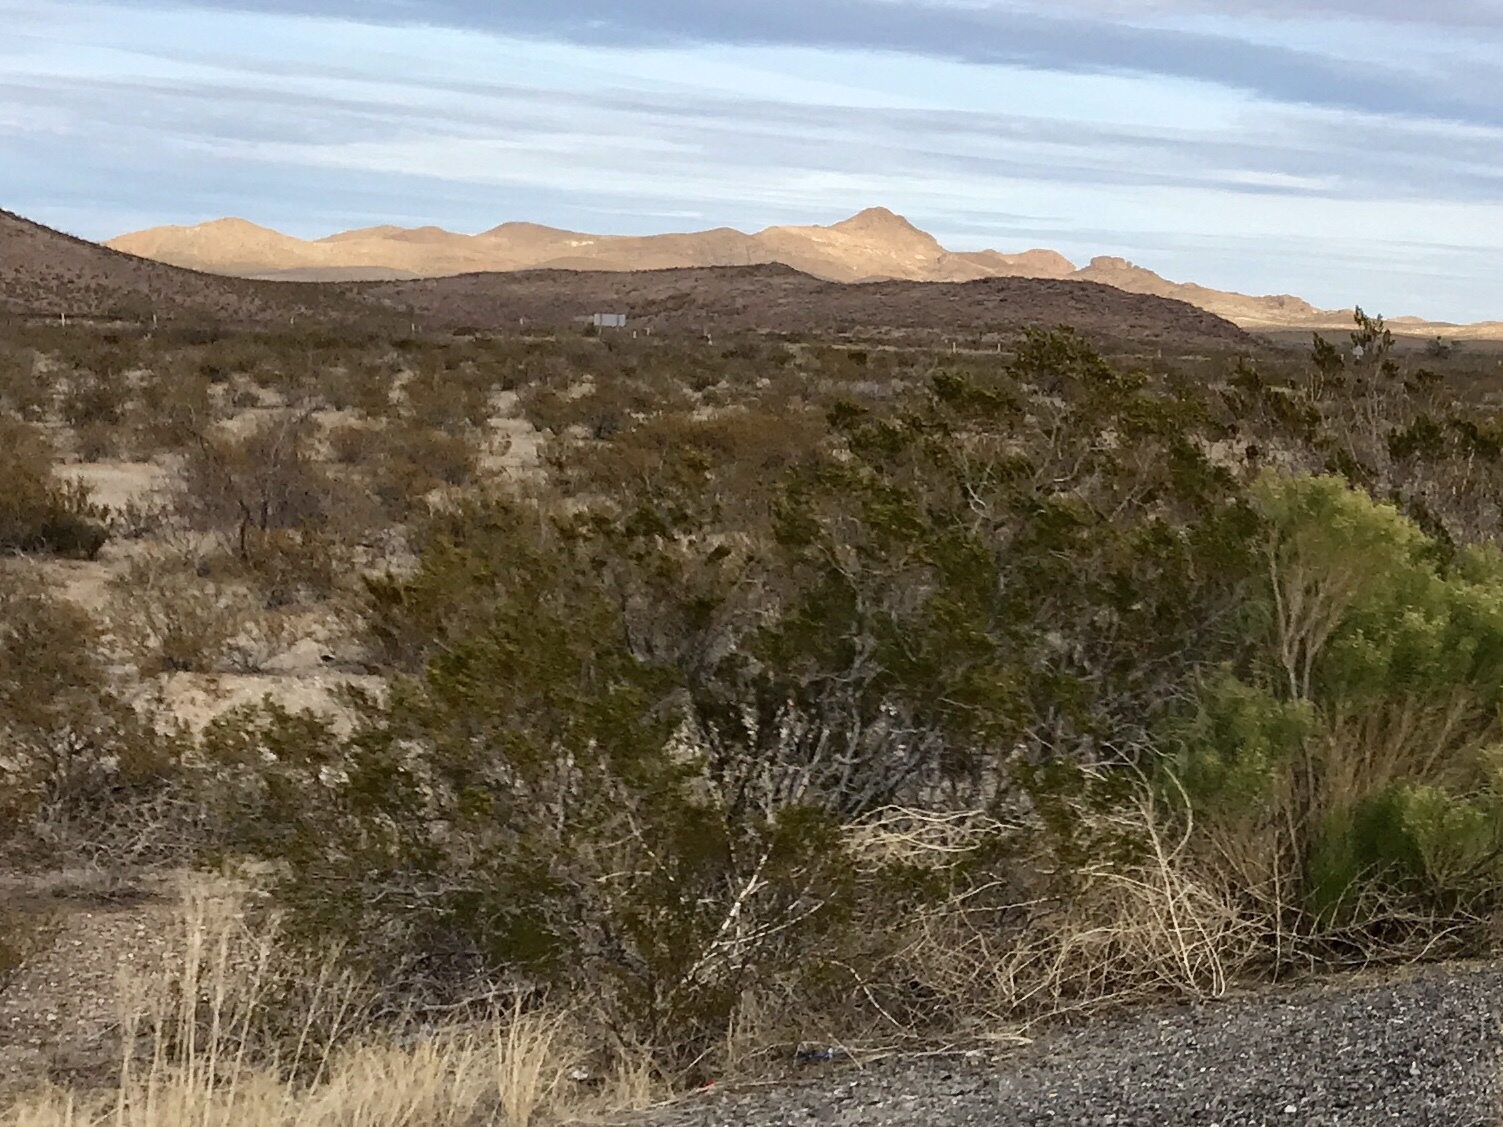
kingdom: Plantae
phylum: Tracheophyta
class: Magnoliopsida
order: Zygophyllales
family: Zygophyllaceae
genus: Larrea
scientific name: Larrea tridentata
